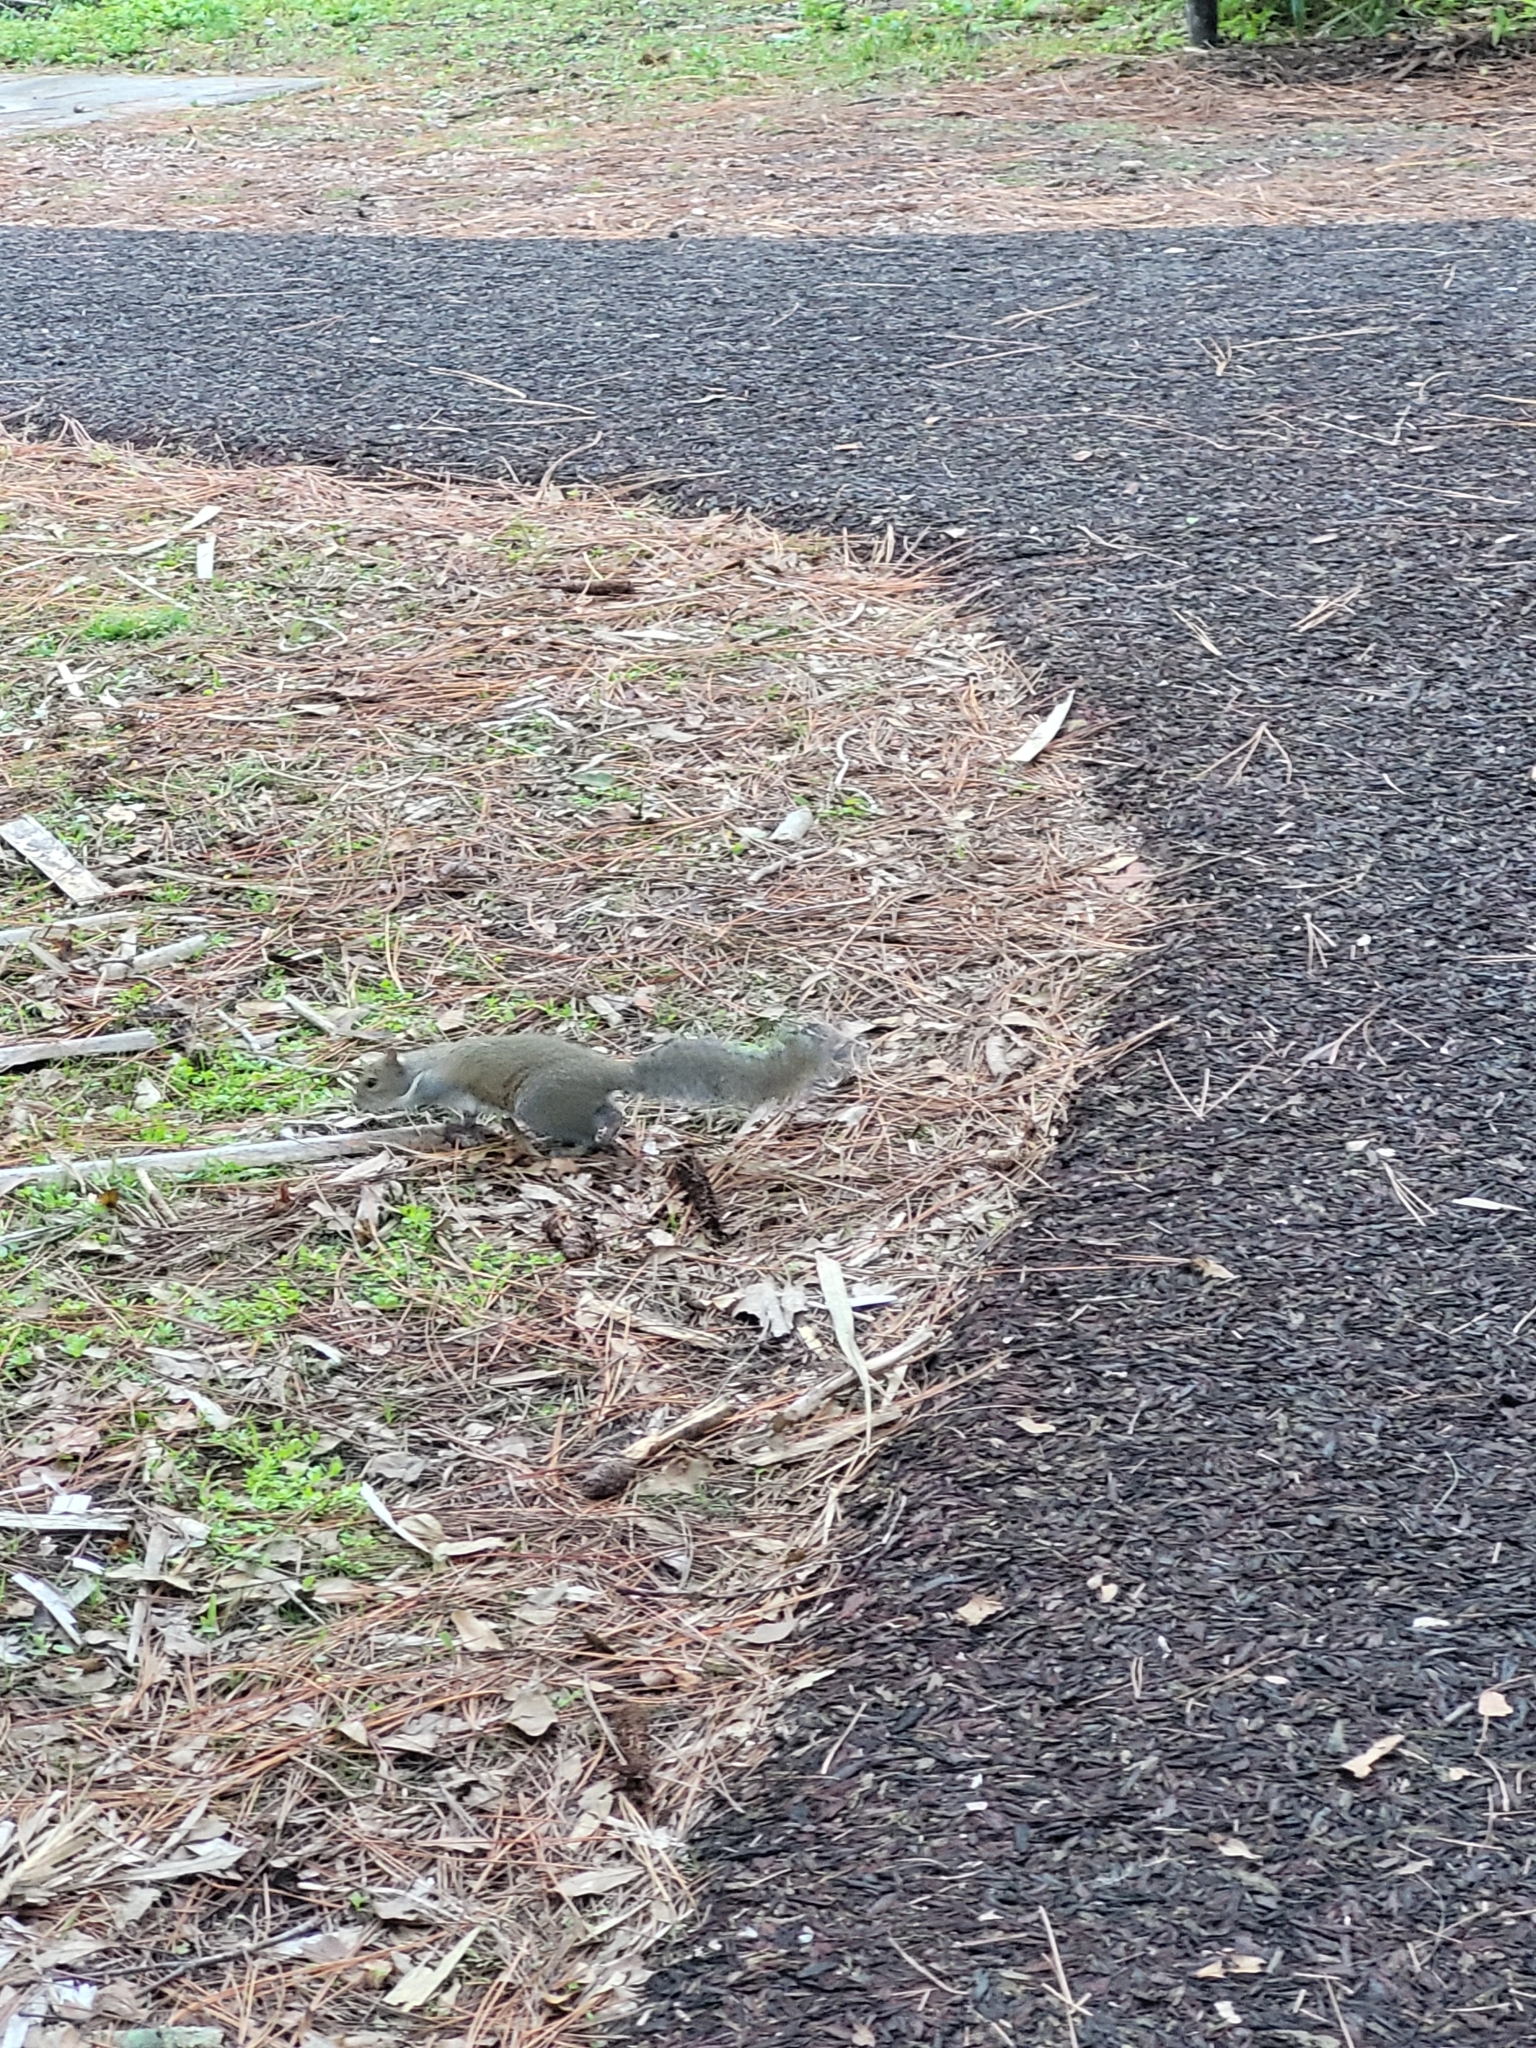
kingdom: Animalia
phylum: Chordata
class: Mammalia
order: Rodentia
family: Sciuridae
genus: Sciurus
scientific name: Sciurus carolinensis
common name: Eastern gray squirrel
